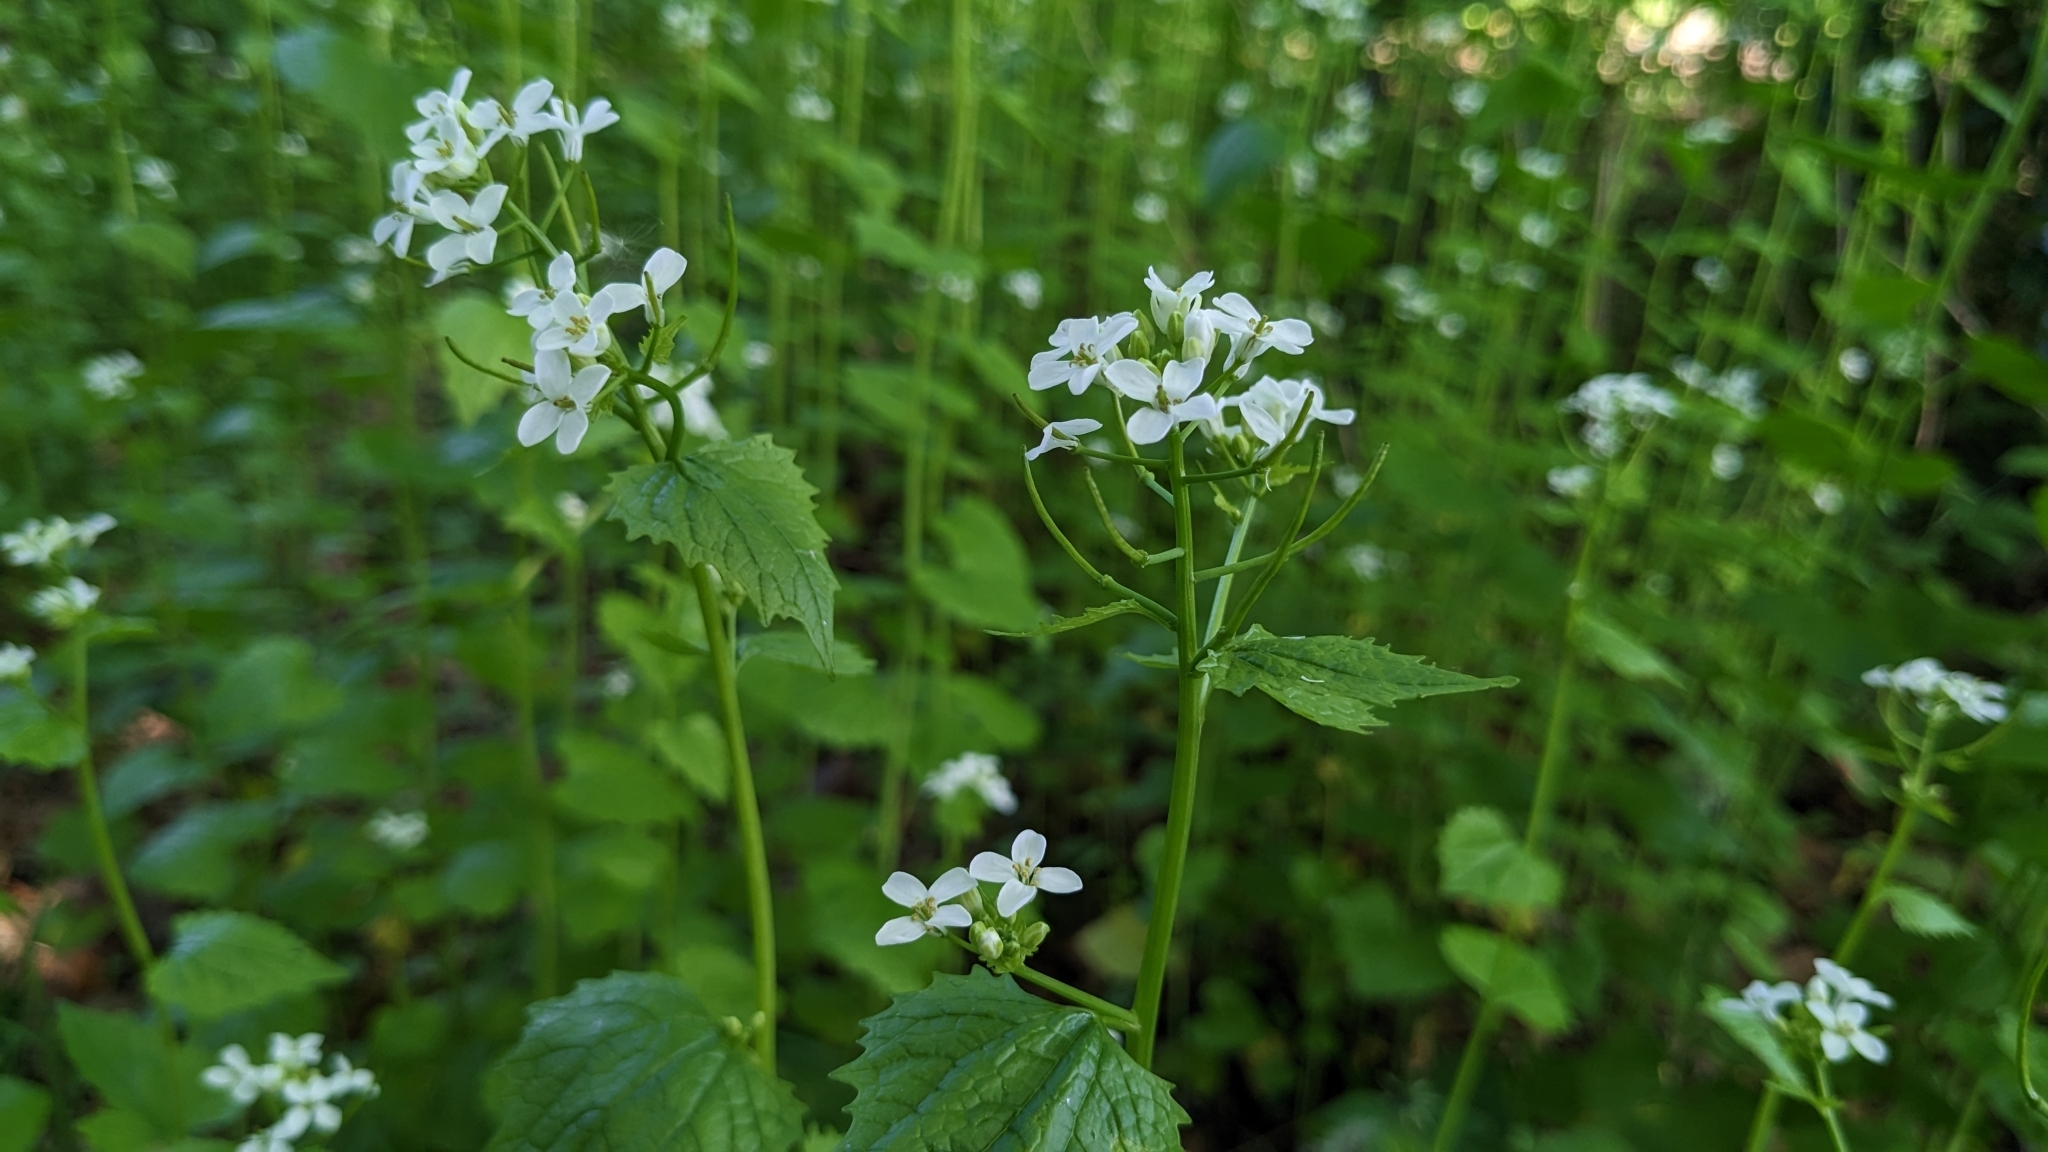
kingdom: Plantae
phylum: Tracheophyta
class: Magnoliopsida
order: Brassicales
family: Brassicaceae
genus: Alliaria
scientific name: Alliaria petiolata
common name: Garlic mustard
